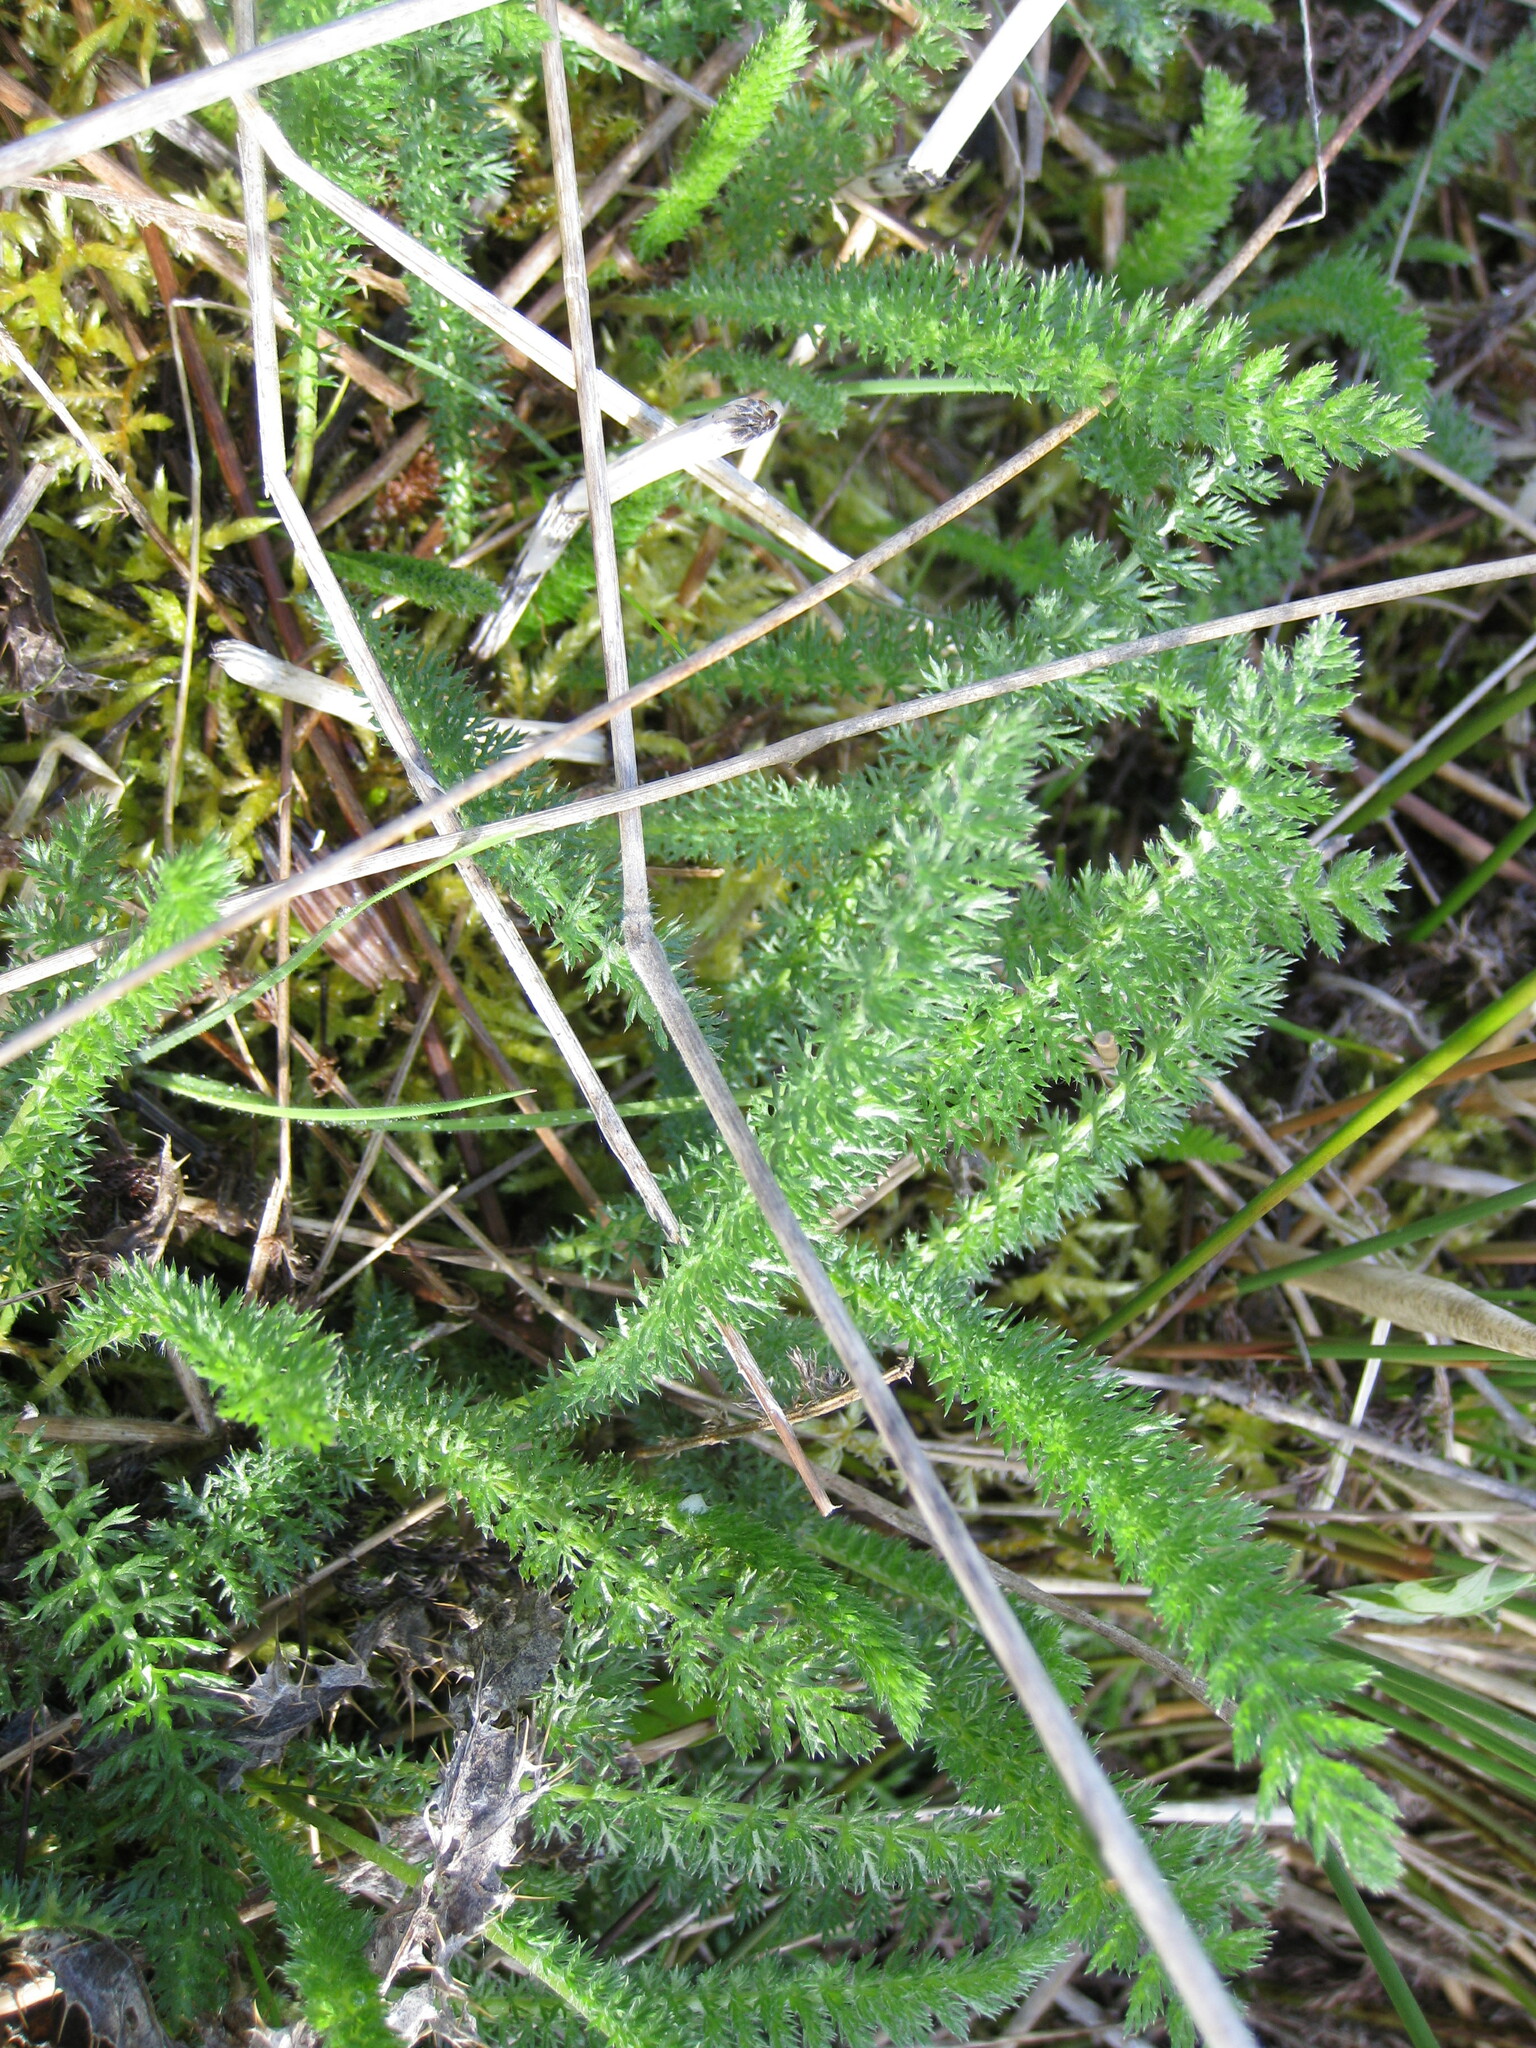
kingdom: Plantae
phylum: Tracheophyta
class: Magnoliopsida
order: Asterales
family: Asteraceae
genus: Achillea
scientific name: Achillea millefolium
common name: Yarrow
